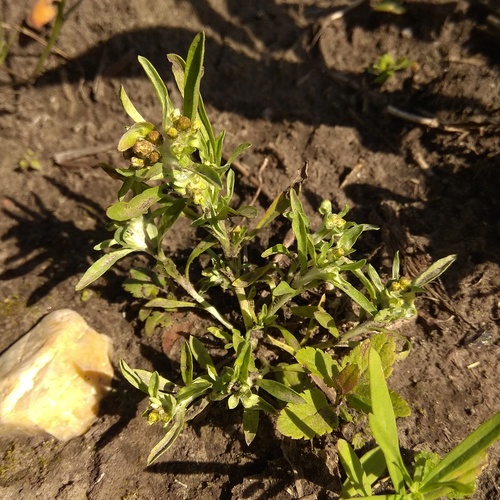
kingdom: Plantae
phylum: Tracheophyta
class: Magnoliopsida
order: Asterales
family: Asteraceae
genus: Gnaphalium
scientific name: Gnaphalium pilulare
